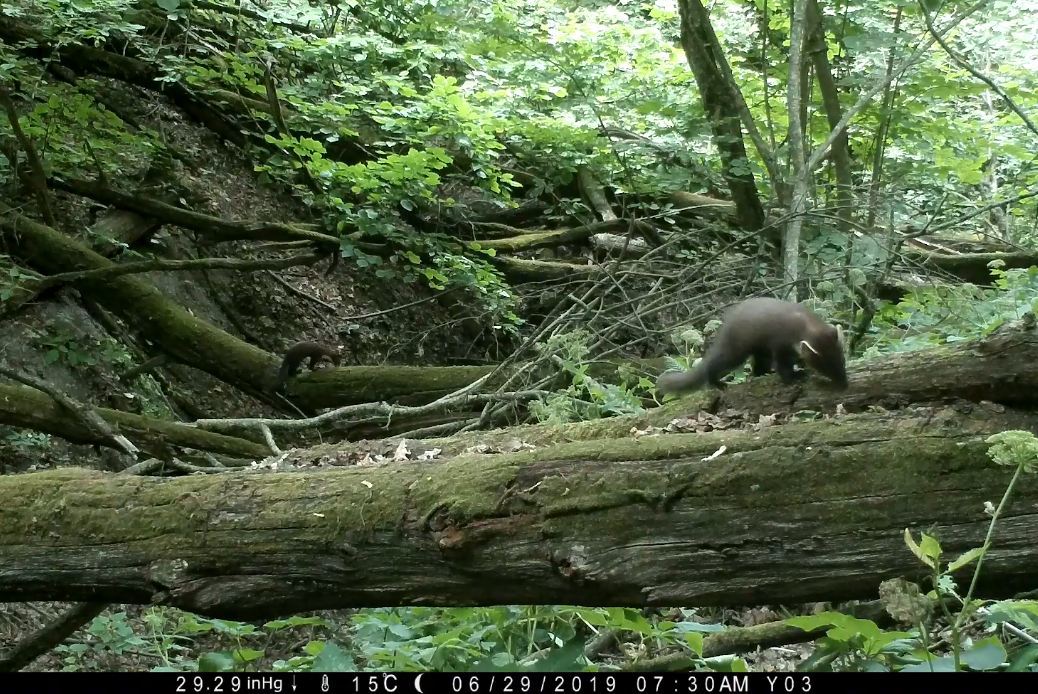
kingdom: Animalia
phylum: Chordata
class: Mammalia
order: Carnivora
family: Mustelidae
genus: Martes
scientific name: Martes martes
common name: European pine marten
